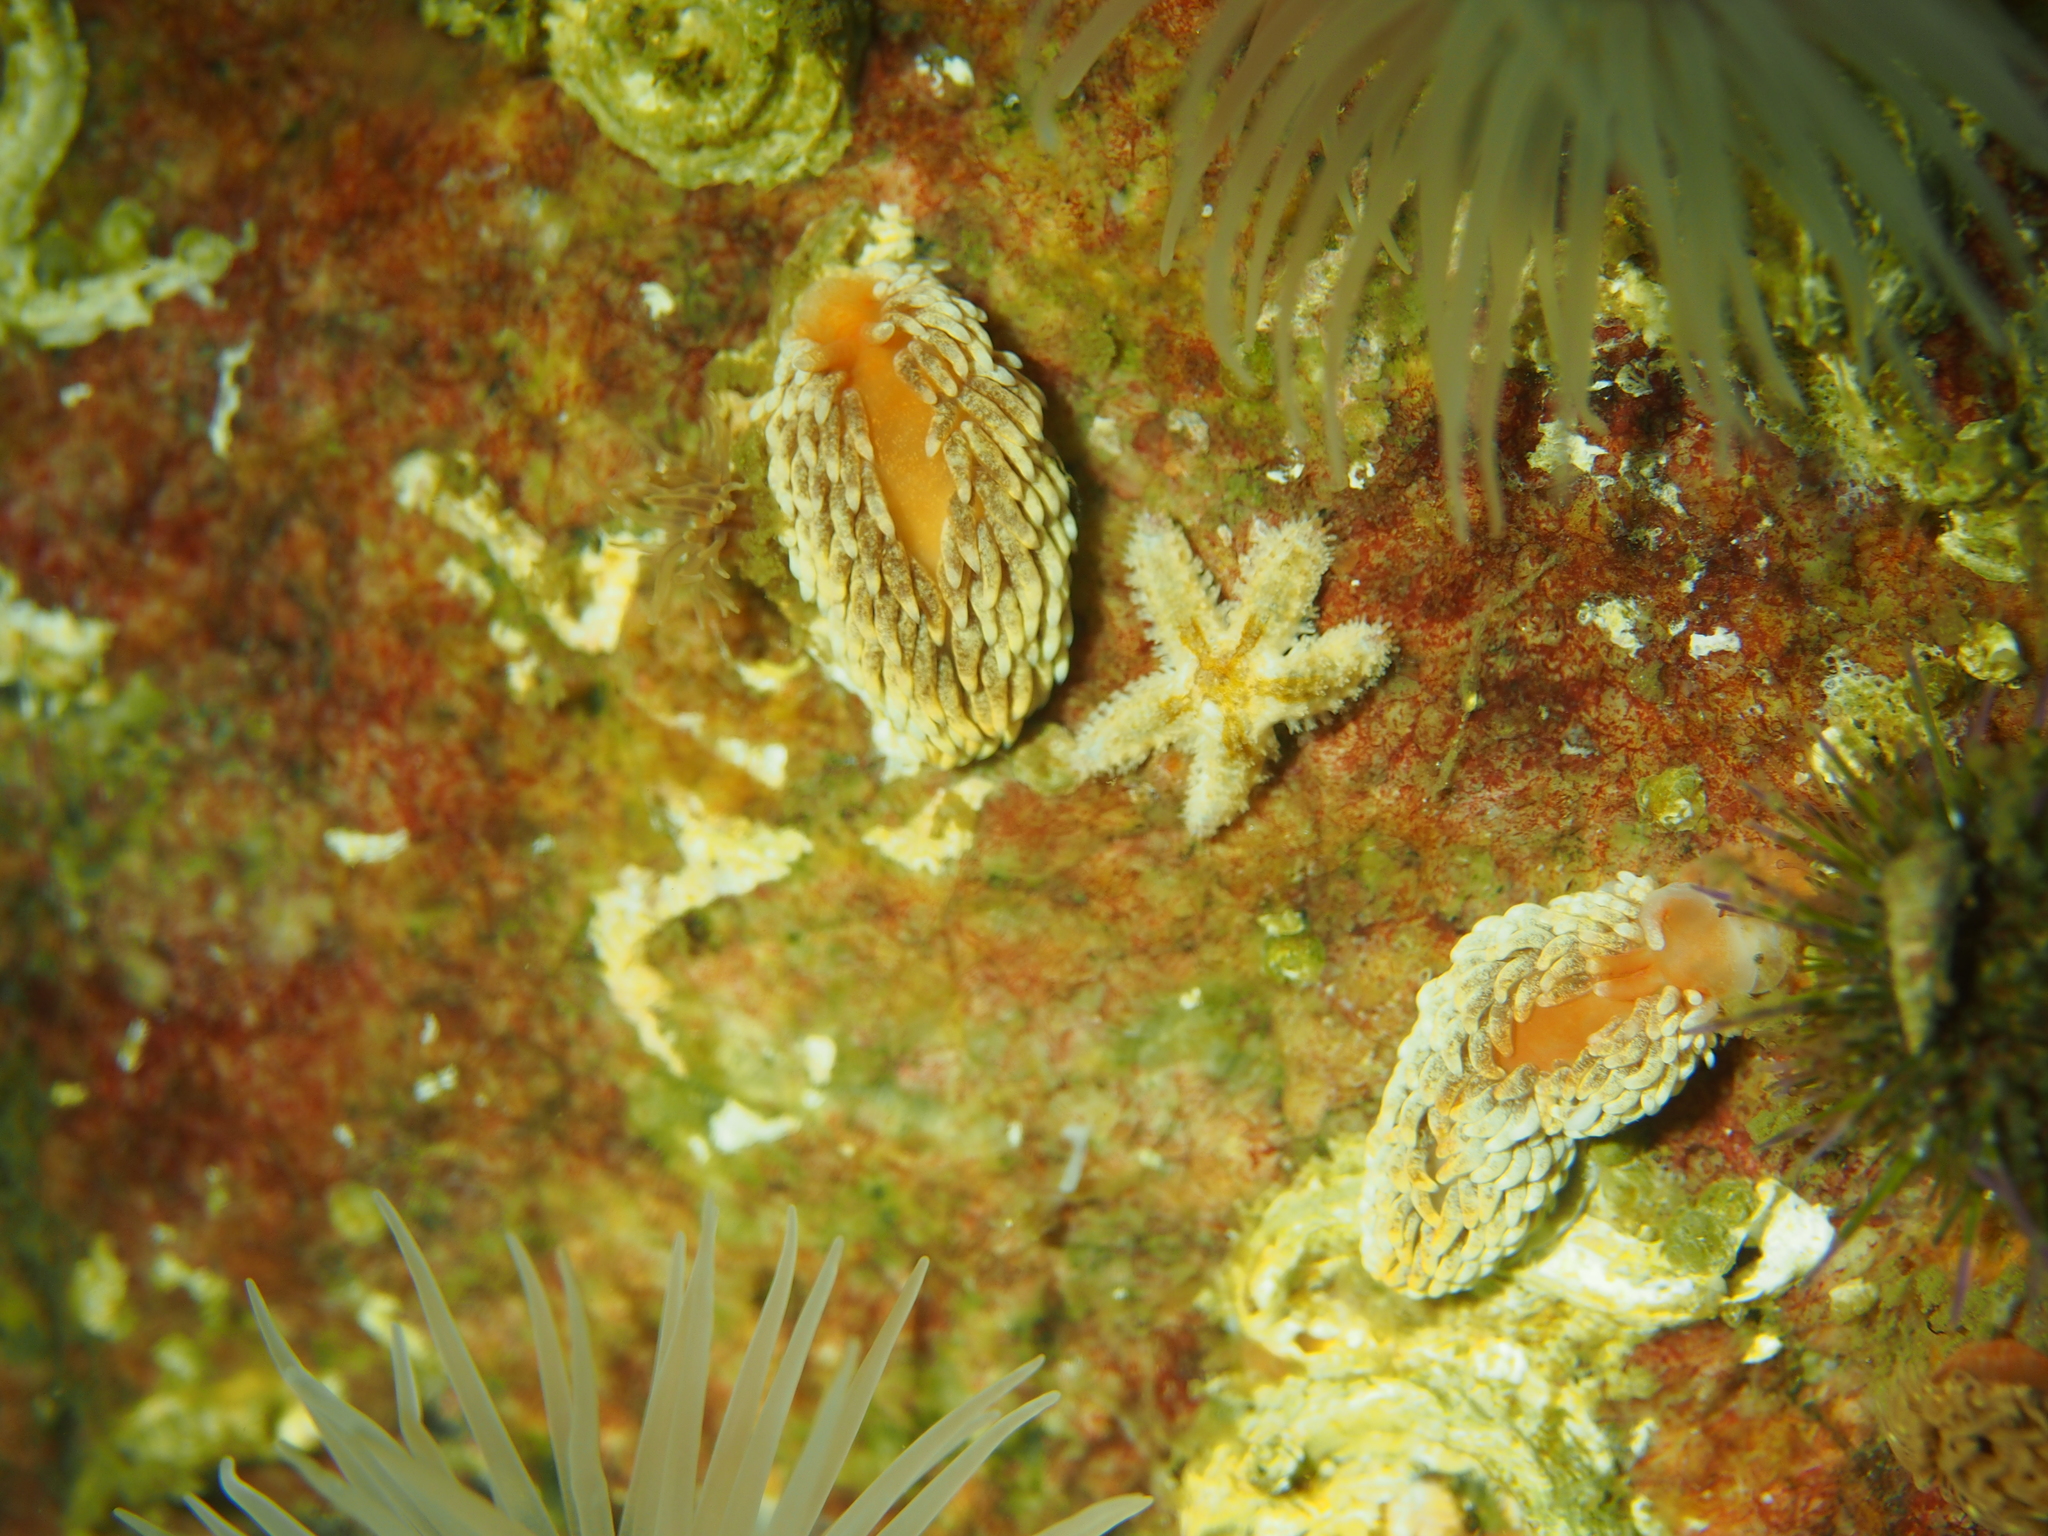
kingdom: Animalia
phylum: Mollusca
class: Gastropoda
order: Nudibranchia
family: Aeolidiidae
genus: Aeolidiella
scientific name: Aeolidiella glauca
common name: Orange-brown aeolid
